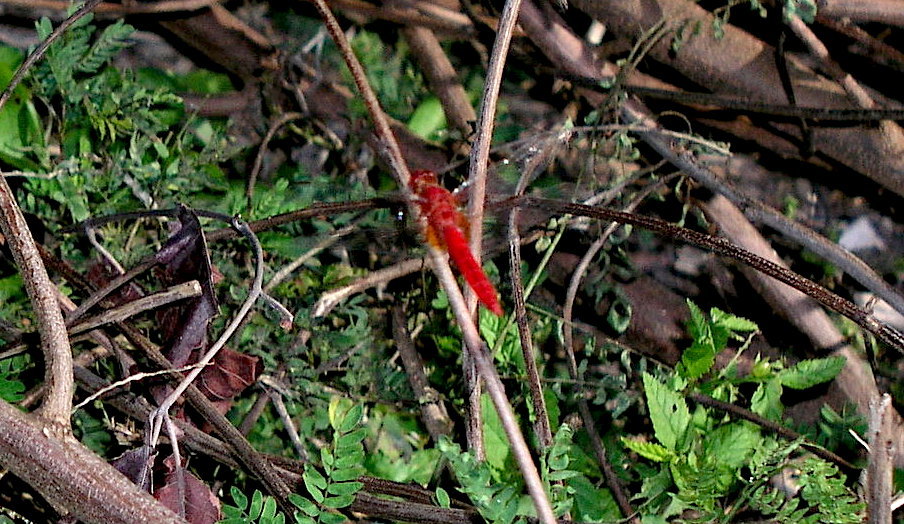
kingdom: Animalia
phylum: Arthropoda
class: Insecta
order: Odonata
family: Libellulidae
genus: Crocothemis
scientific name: Crocothemis servilia
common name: Scarlet skimmer
